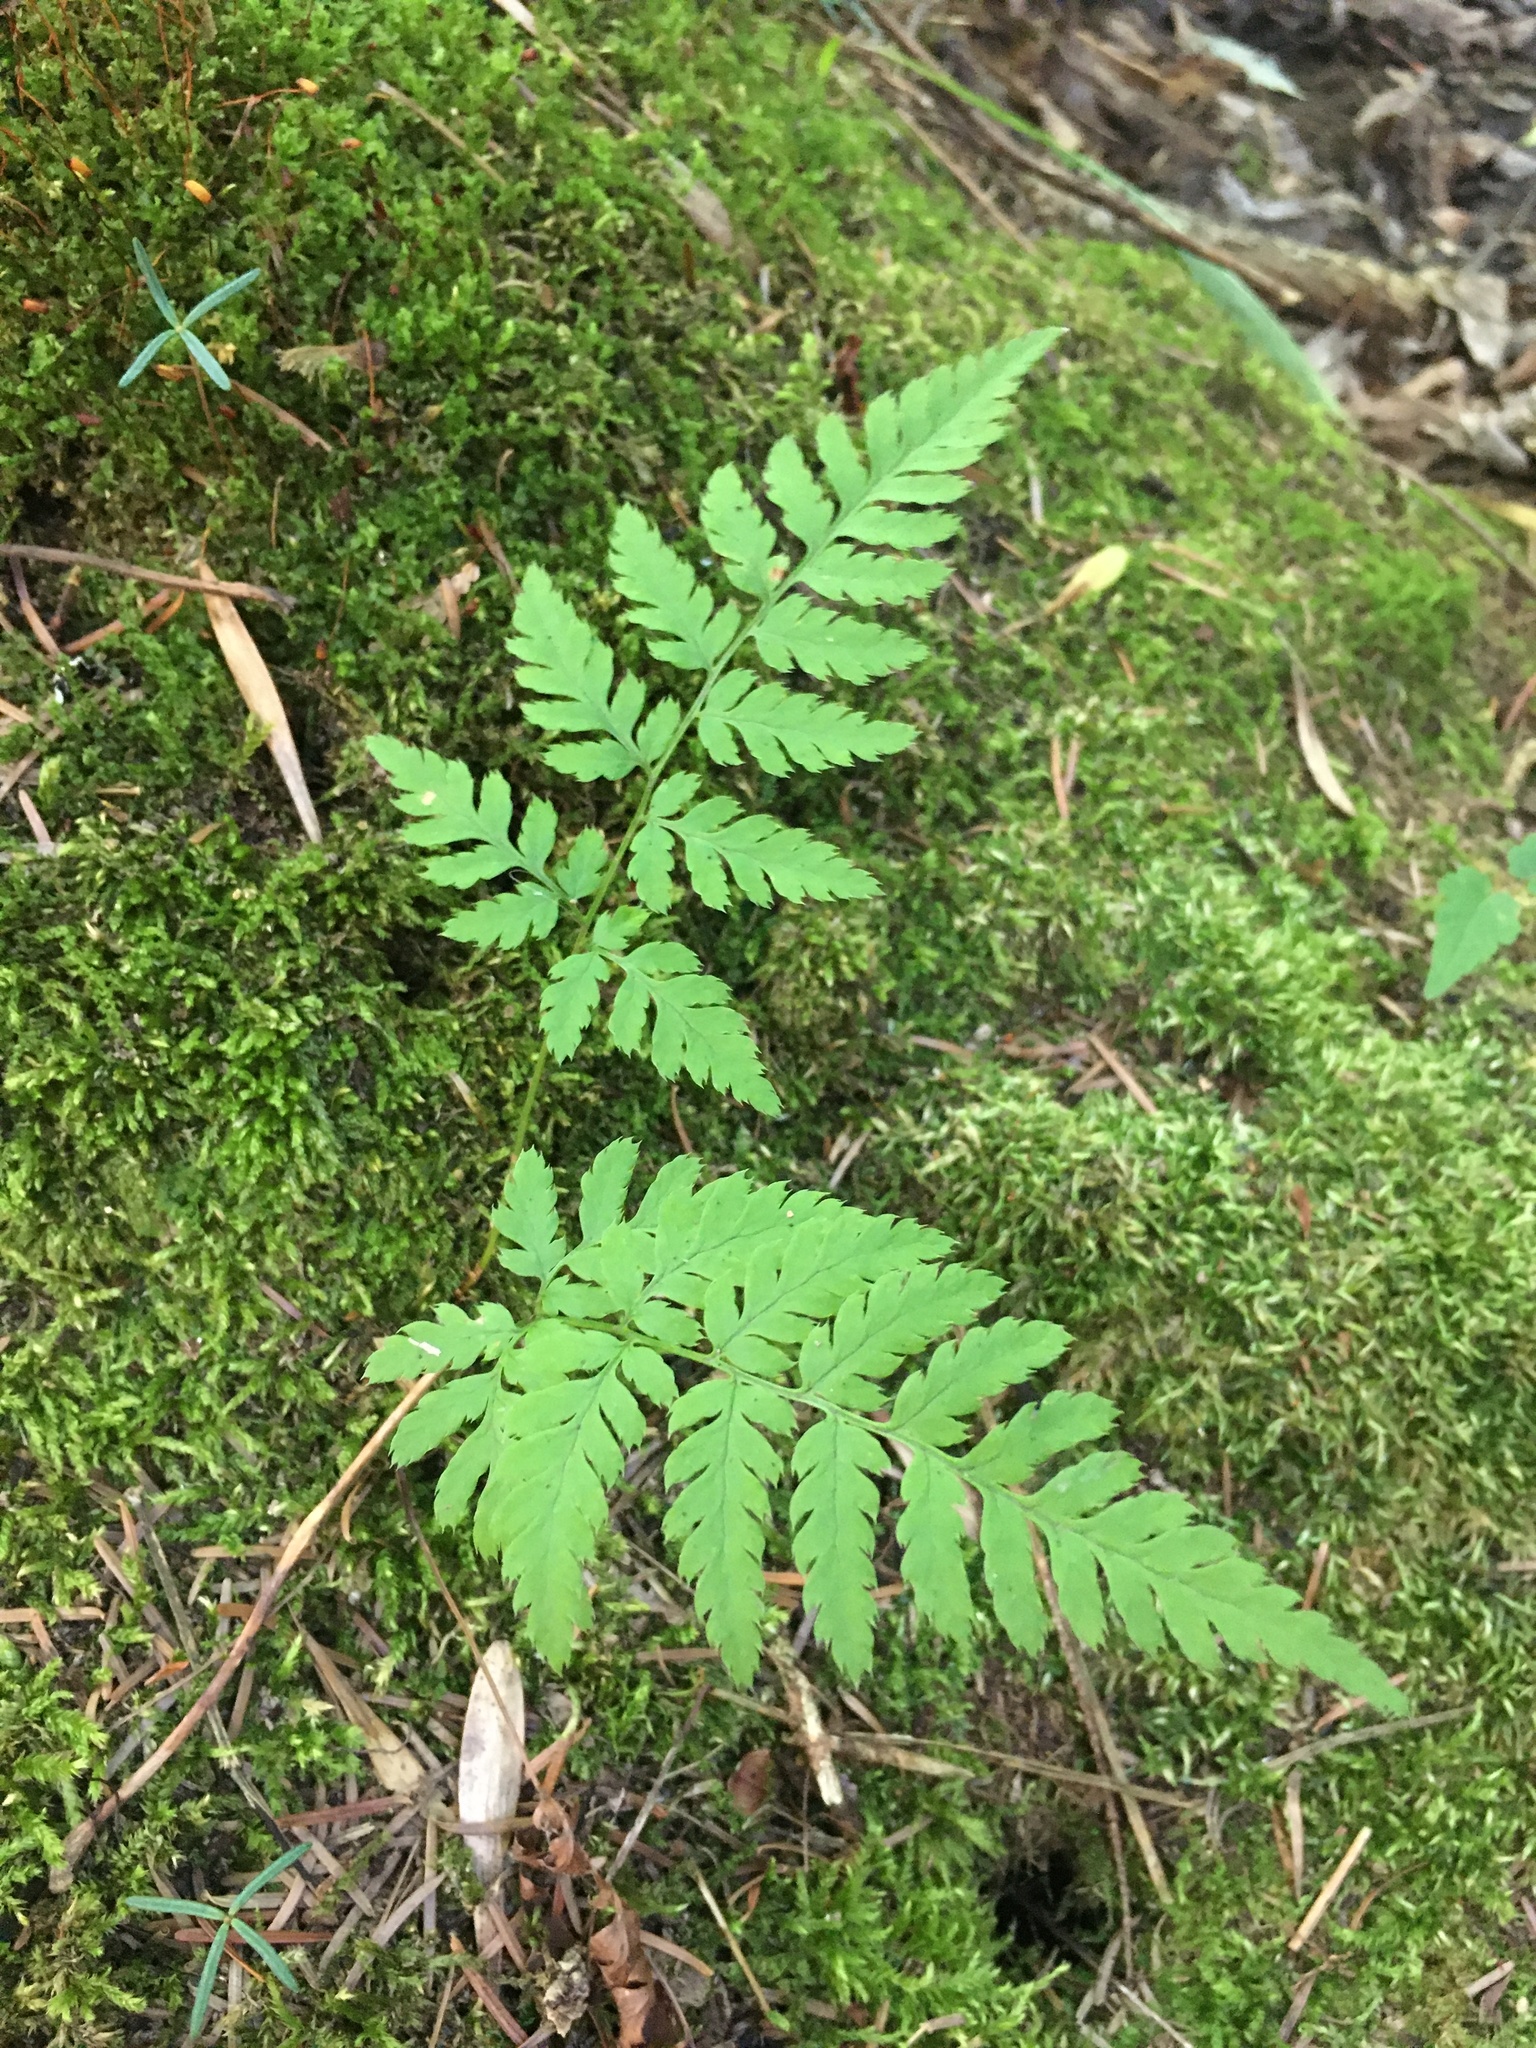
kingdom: Plantae
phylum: Tracheophyta
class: Polypodiopsida
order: Polypodiales
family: Dryopteridaceae
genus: Dryopteris
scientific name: Dryopteris carthusiana
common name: Narrow buckler-fern
